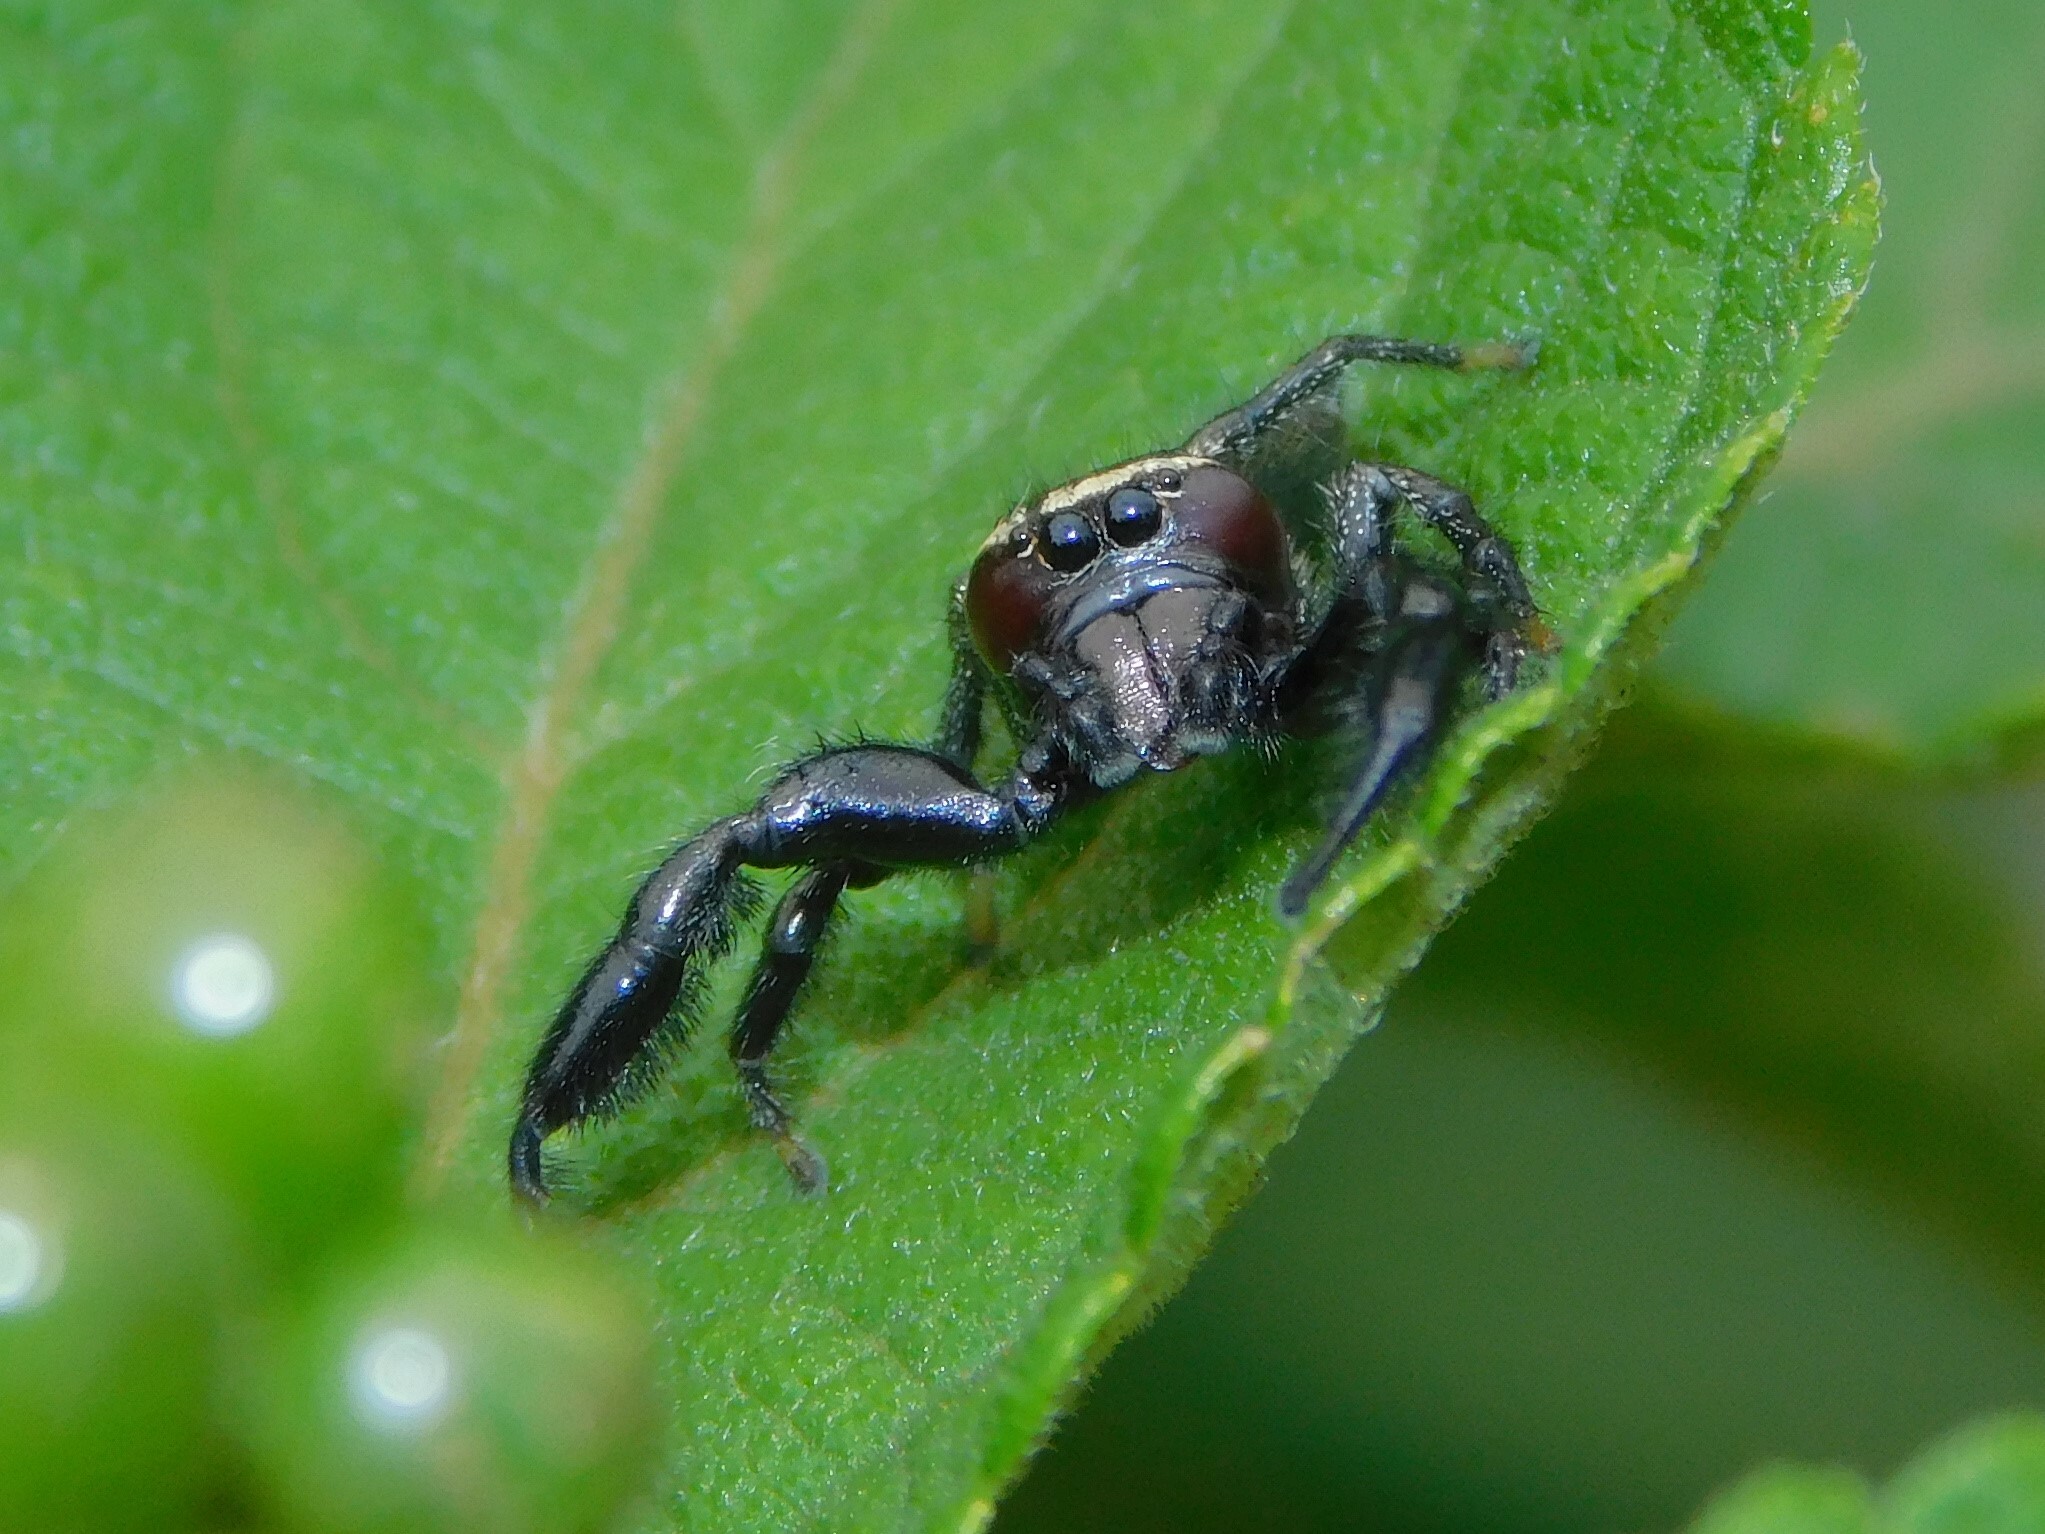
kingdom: Animalia
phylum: Arthropoda
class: Arachnida
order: Araneae
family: Salticidae
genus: Thyene
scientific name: Thyene bucculenta
